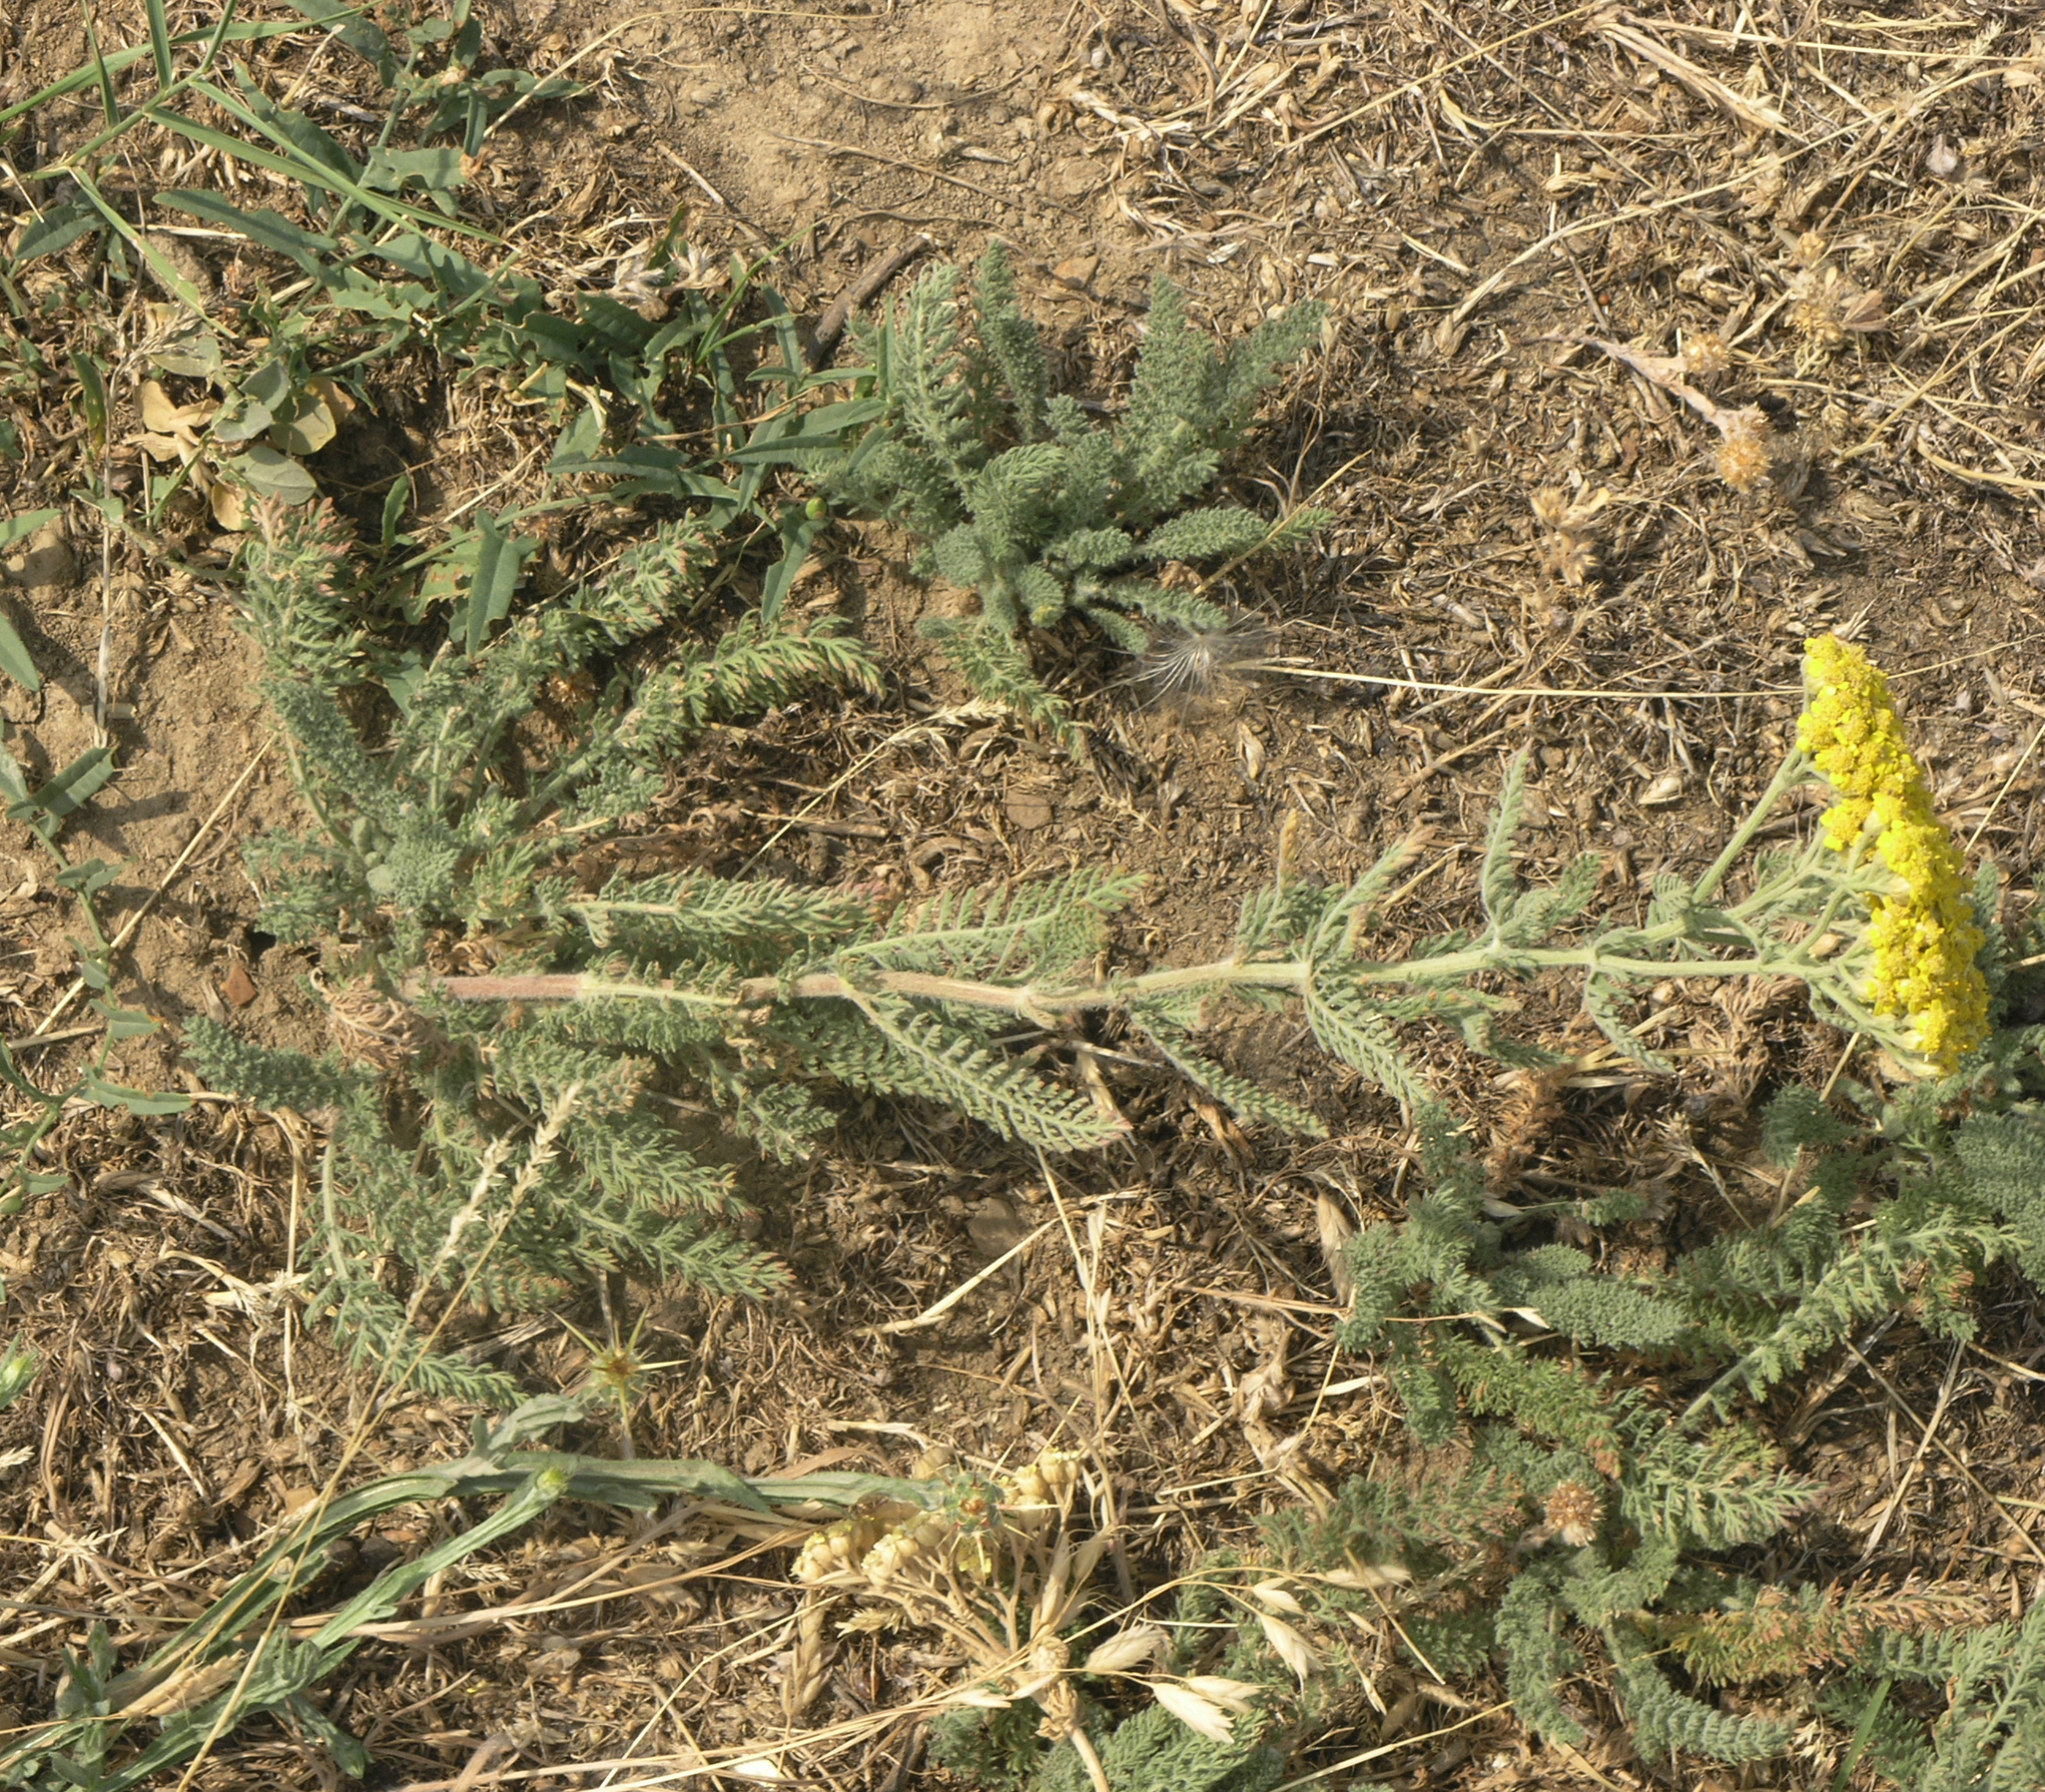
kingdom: Plantae
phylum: Tracheophyta
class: Magnoliopsida
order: Asterales
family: Asteraceae
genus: Achillea
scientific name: Achillea arabica
